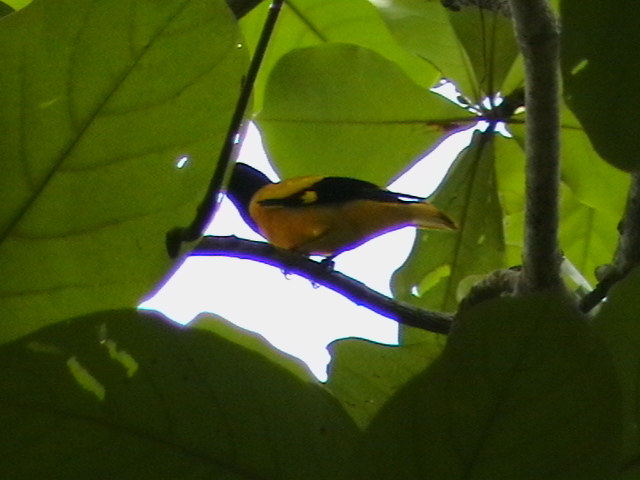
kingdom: Animalia
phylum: Chordata
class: Aves
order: Passeriformes
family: Oriolidae
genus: Oriolus
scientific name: Oriolus xanthornus
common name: Black-hooded oriole
